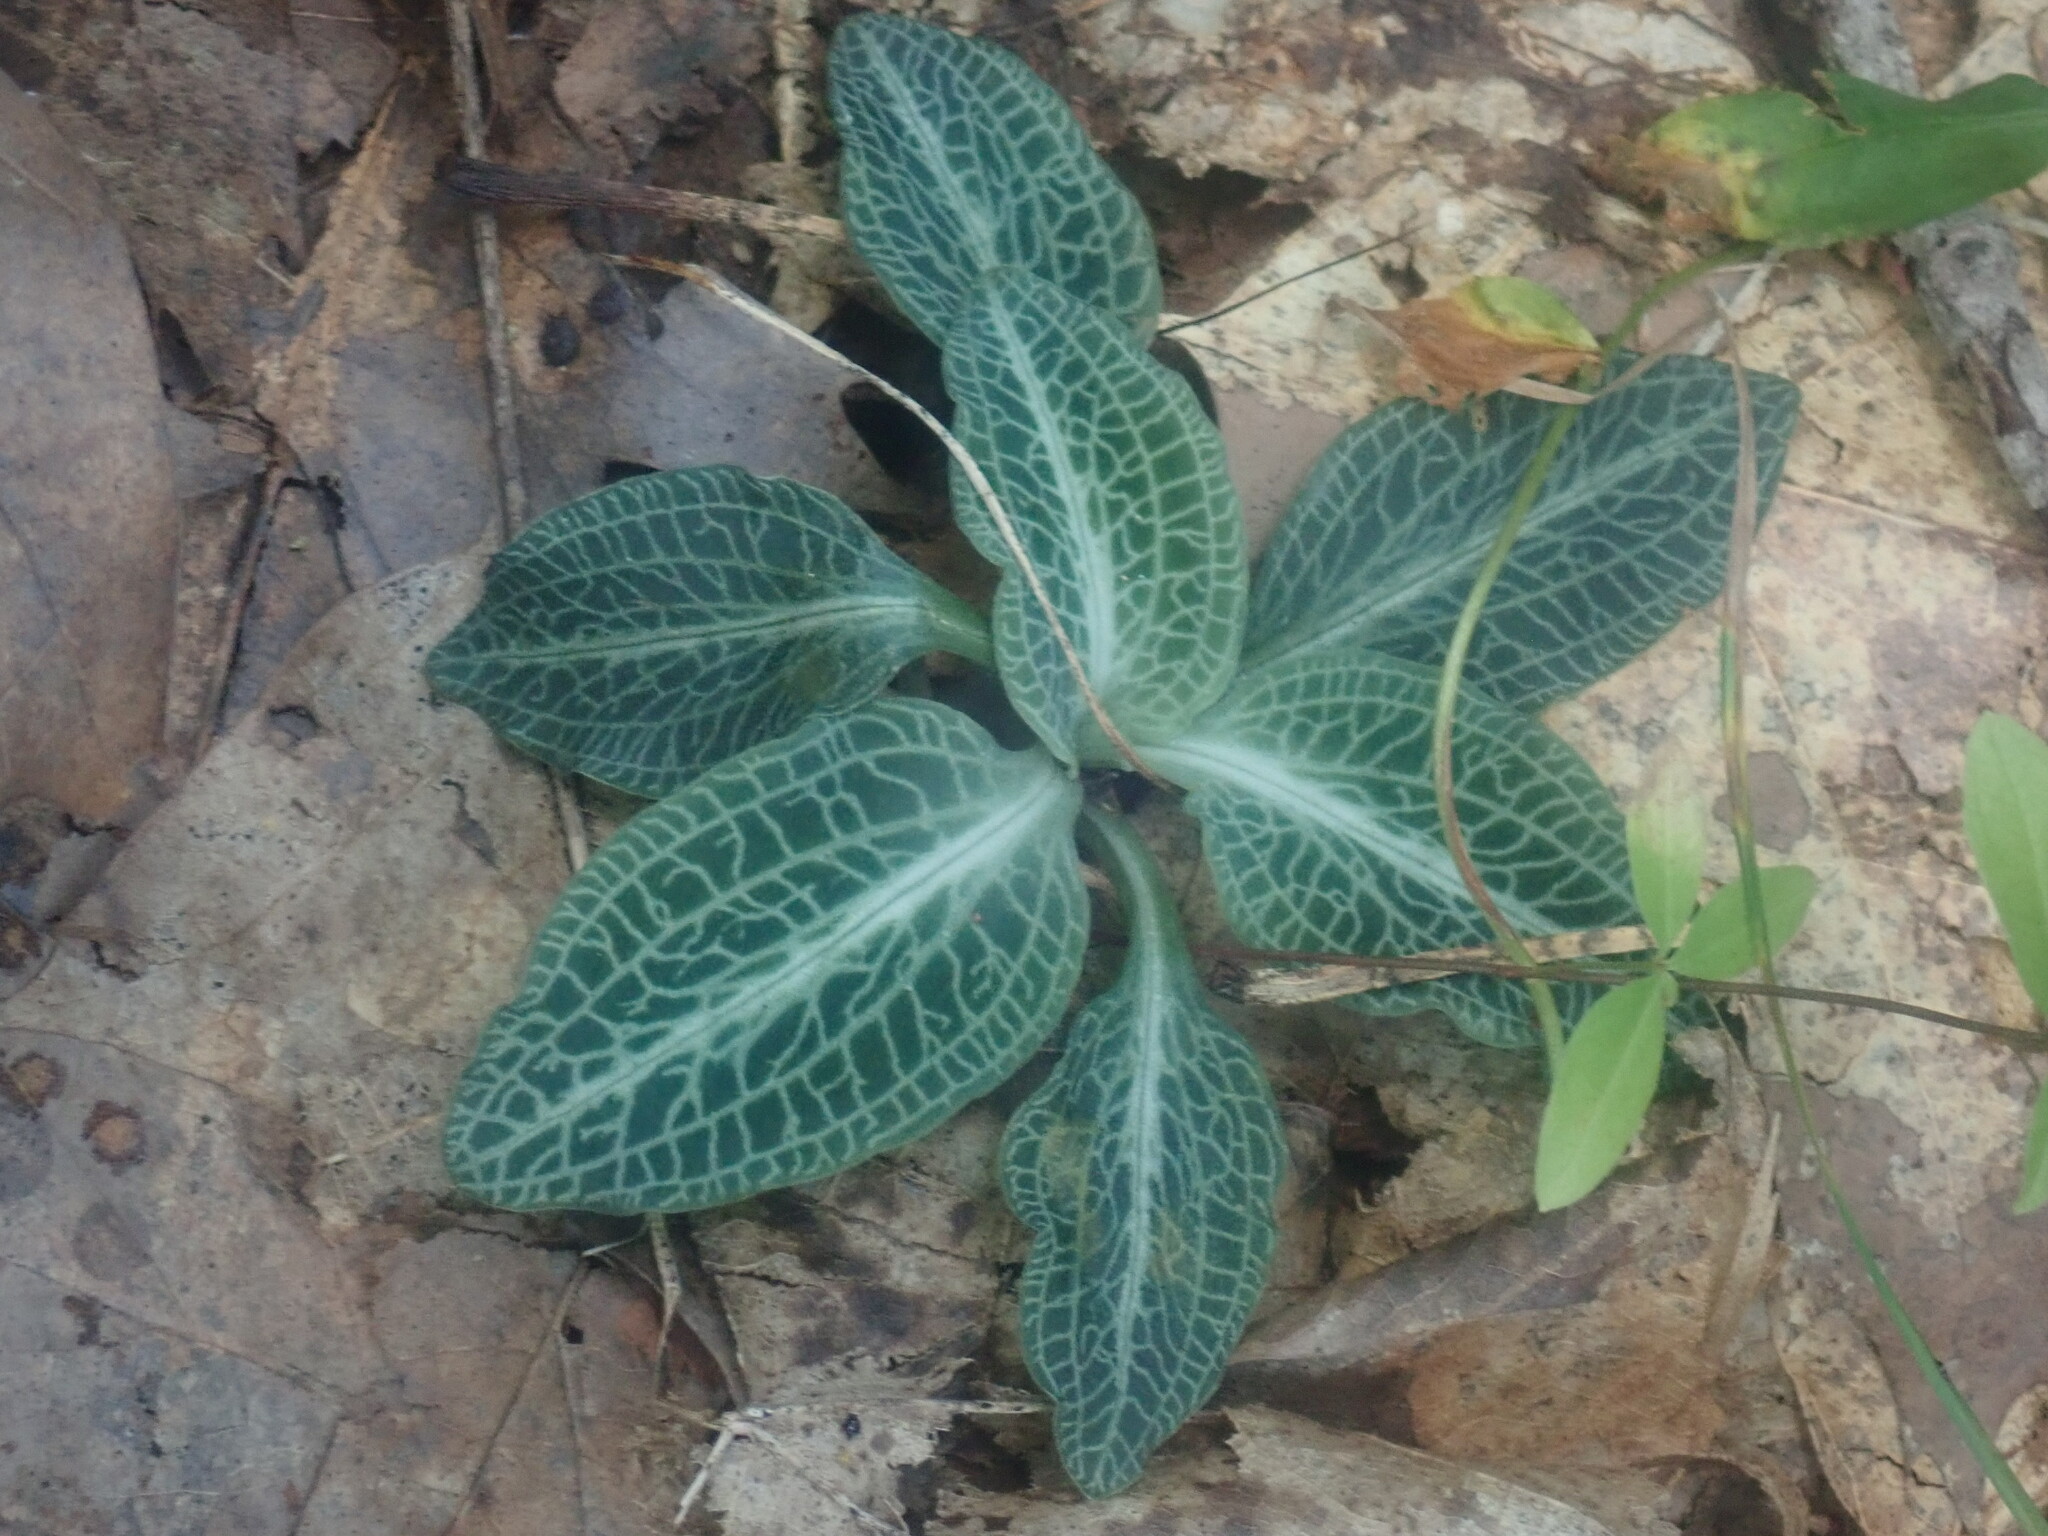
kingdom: Plantae
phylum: Tracheophyta
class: Liliopsida
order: Asparagales
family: Orchidaceae
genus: Goodyera
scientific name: Goodyera pubescens
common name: Downy rattlesnake-plantain
